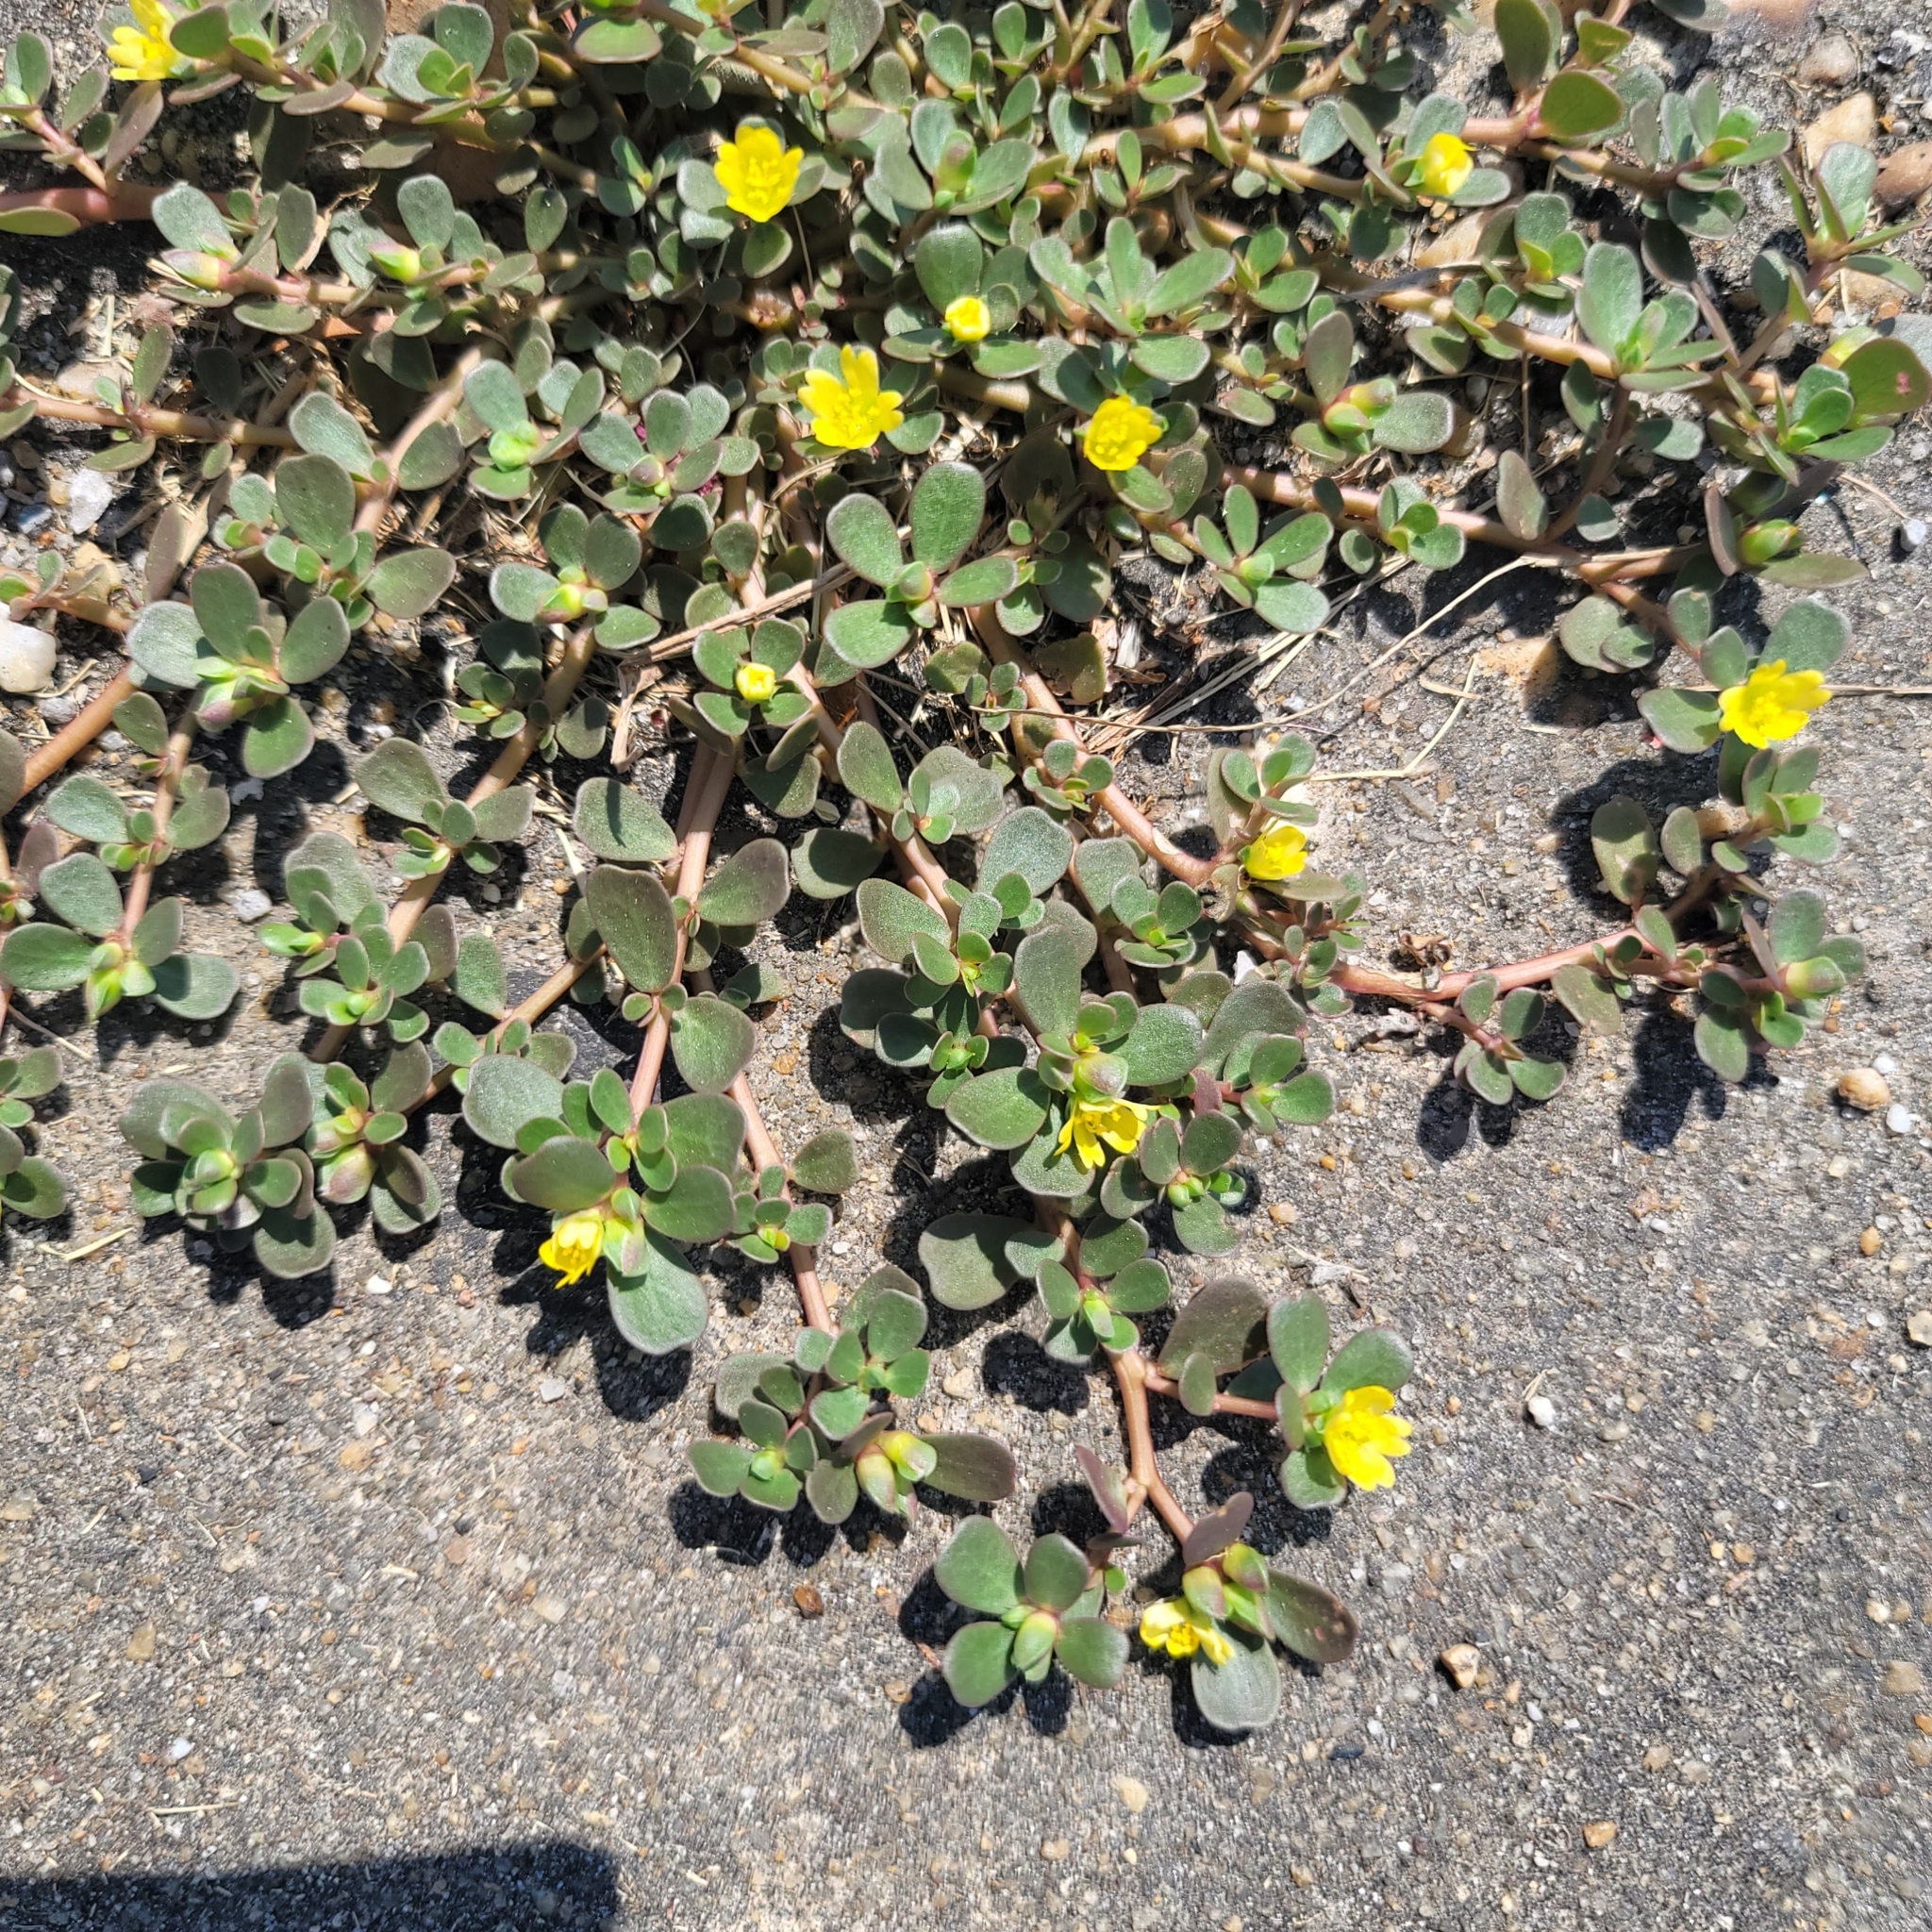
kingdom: Plantae
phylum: Tracheophyta
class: Magnoliopsida
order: Caryophyllales
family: Portulacaceae
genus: Portulaca
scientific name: Portulaca oleracea
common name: Common purslane
